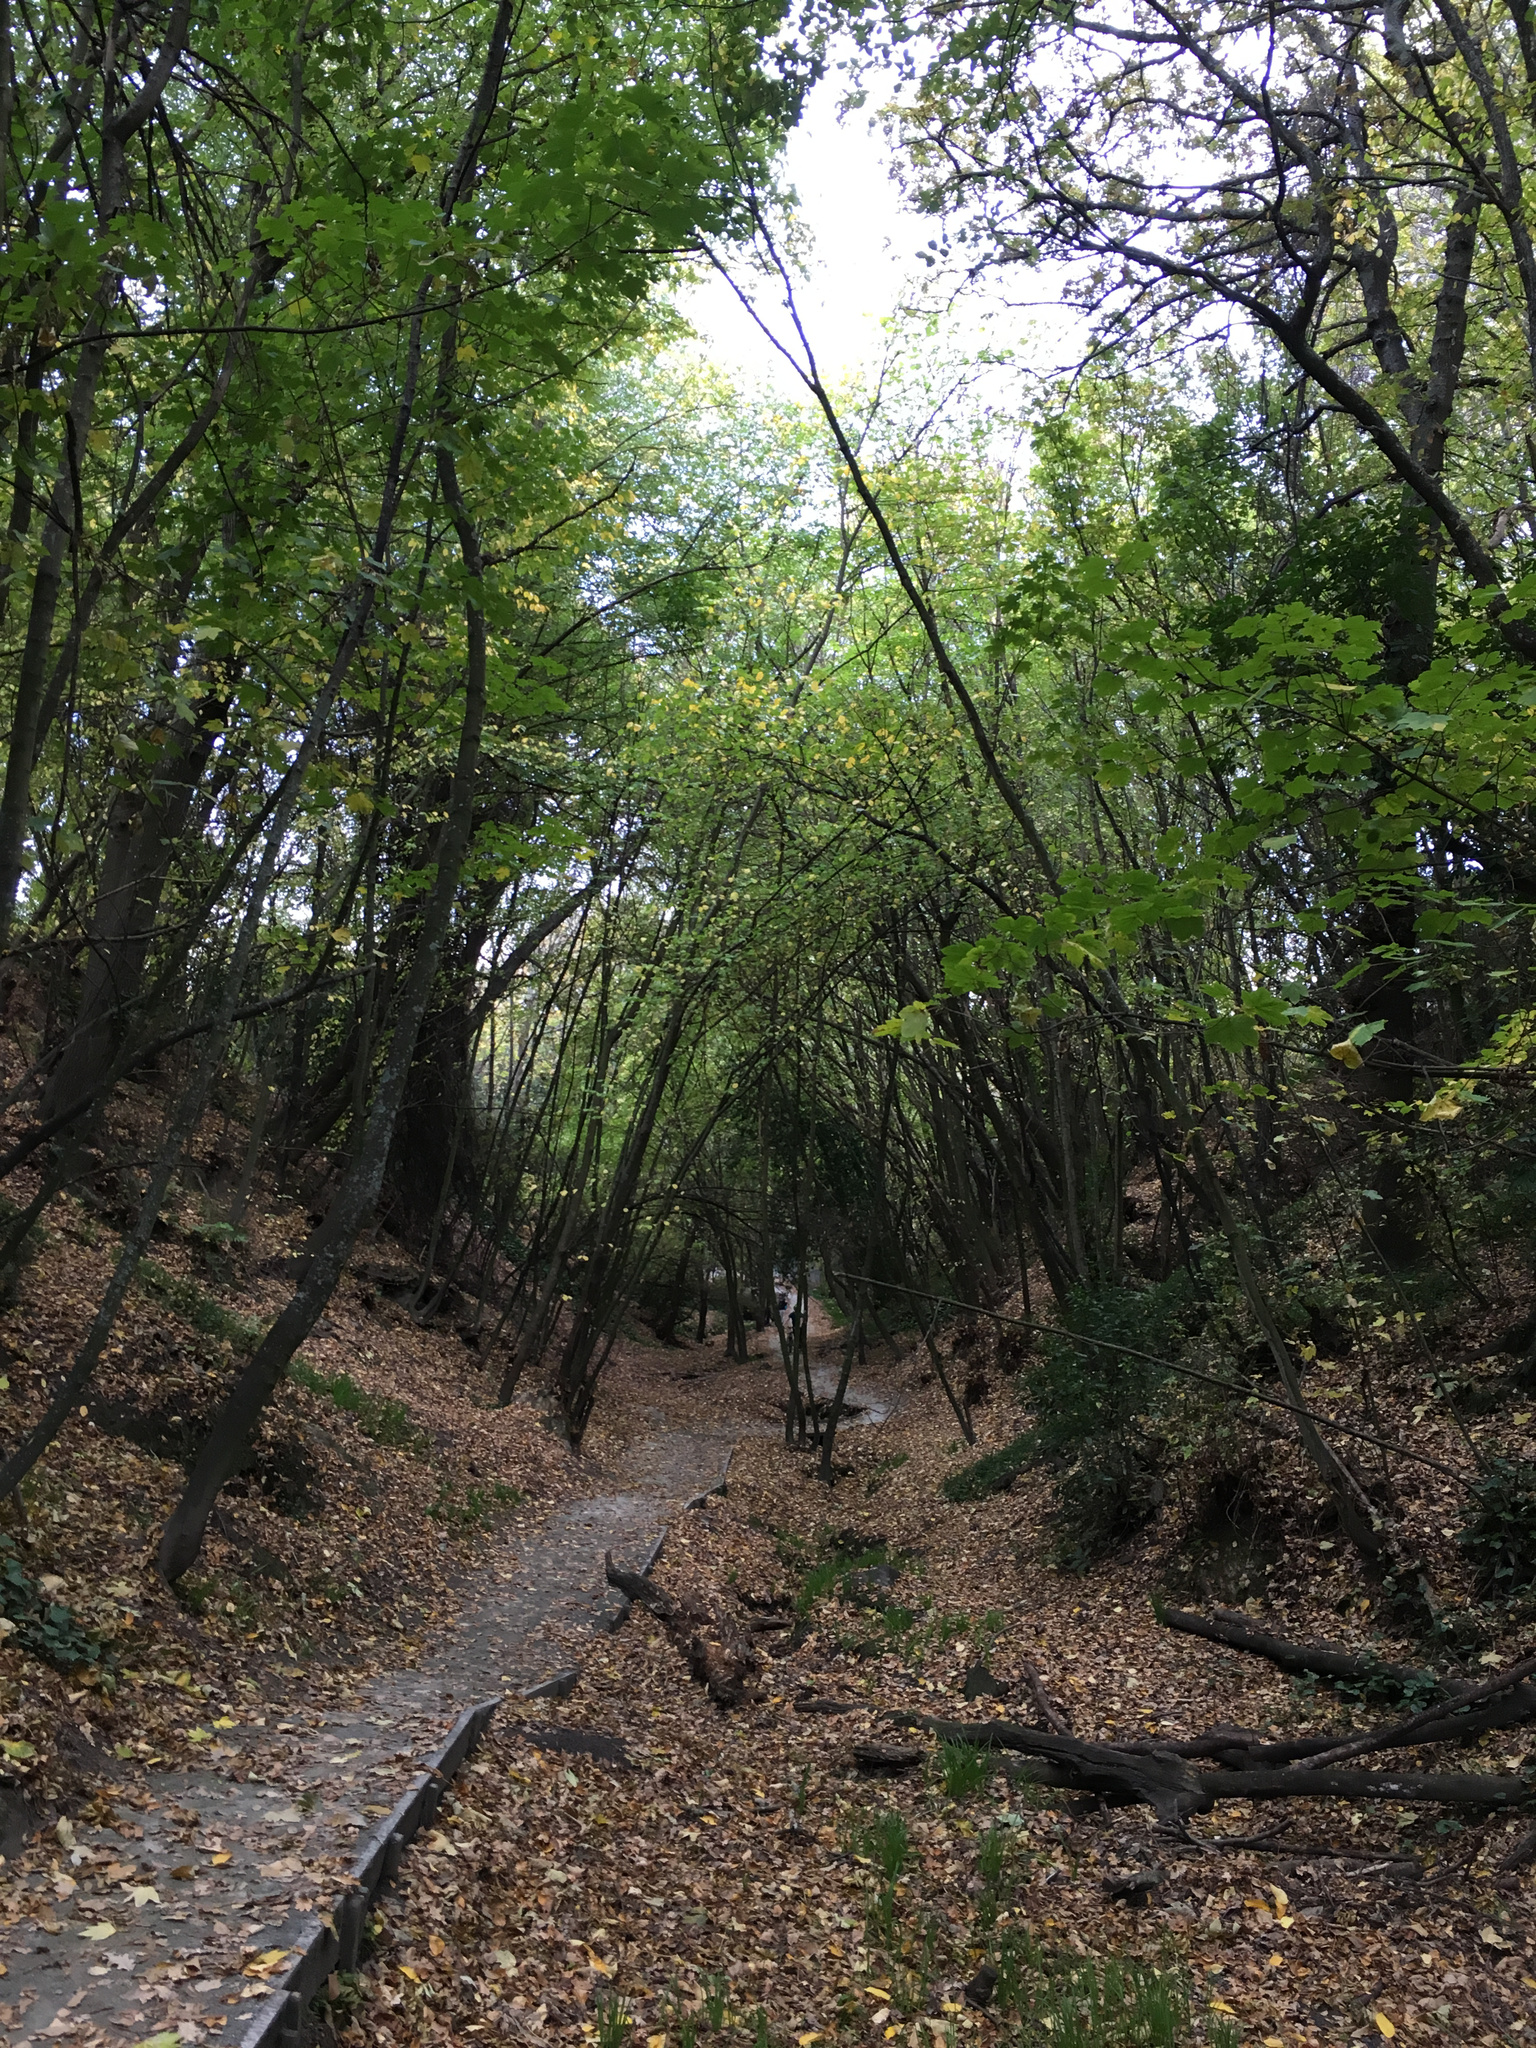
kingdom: Plantae
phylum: Tracheophyta
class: Magnoliopsida
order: Sapindales
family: Sapindaceae
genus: Acer
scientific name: Acer pseudoplatanus
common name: Sycamore
